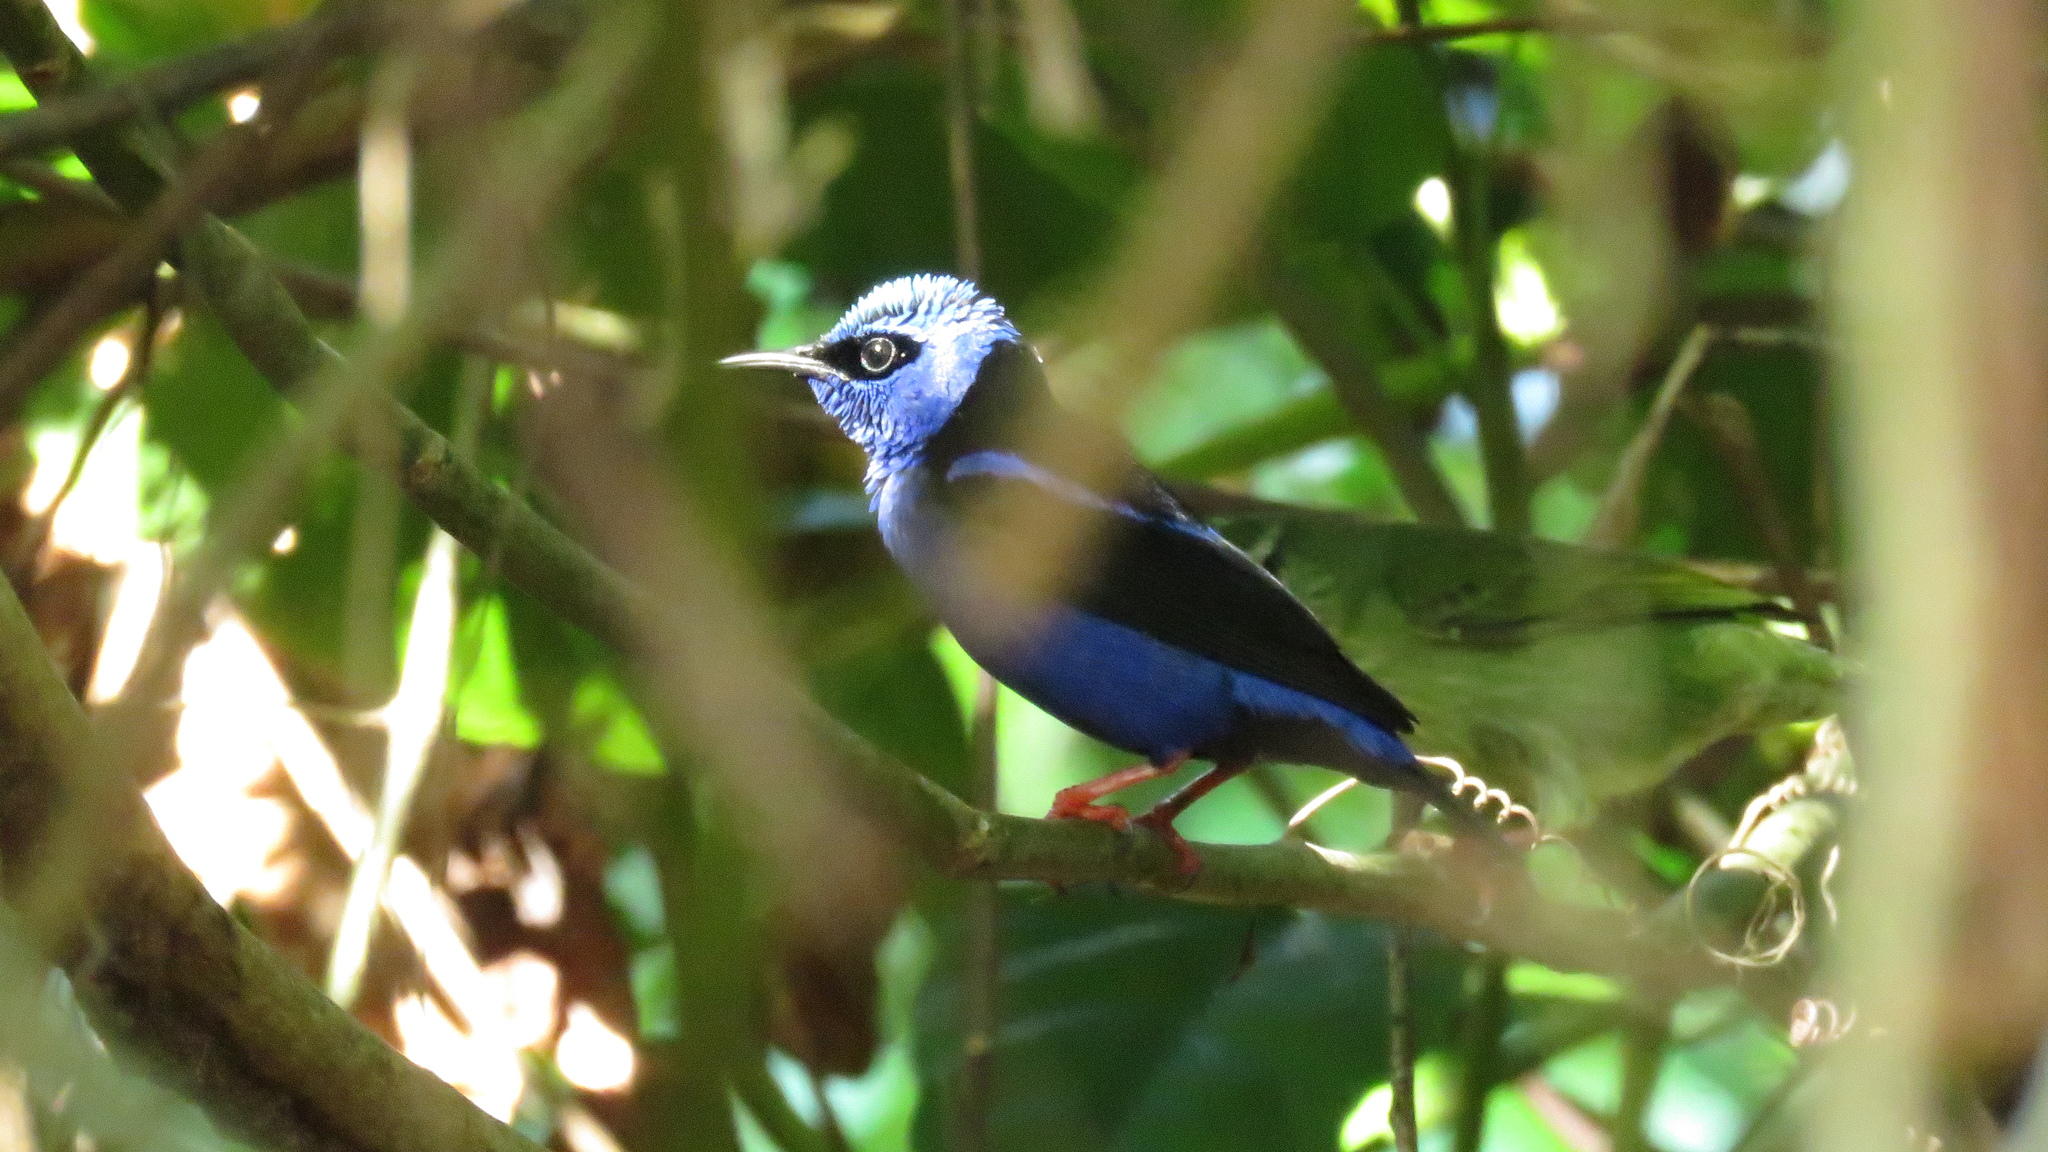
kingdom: Animalia
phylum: Chordata
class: Aves
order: Passeriformes
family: Thraupidae
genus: Cyanerpes
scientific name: Cyanerpes cyaneus
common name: Red-legged honeycreeper
